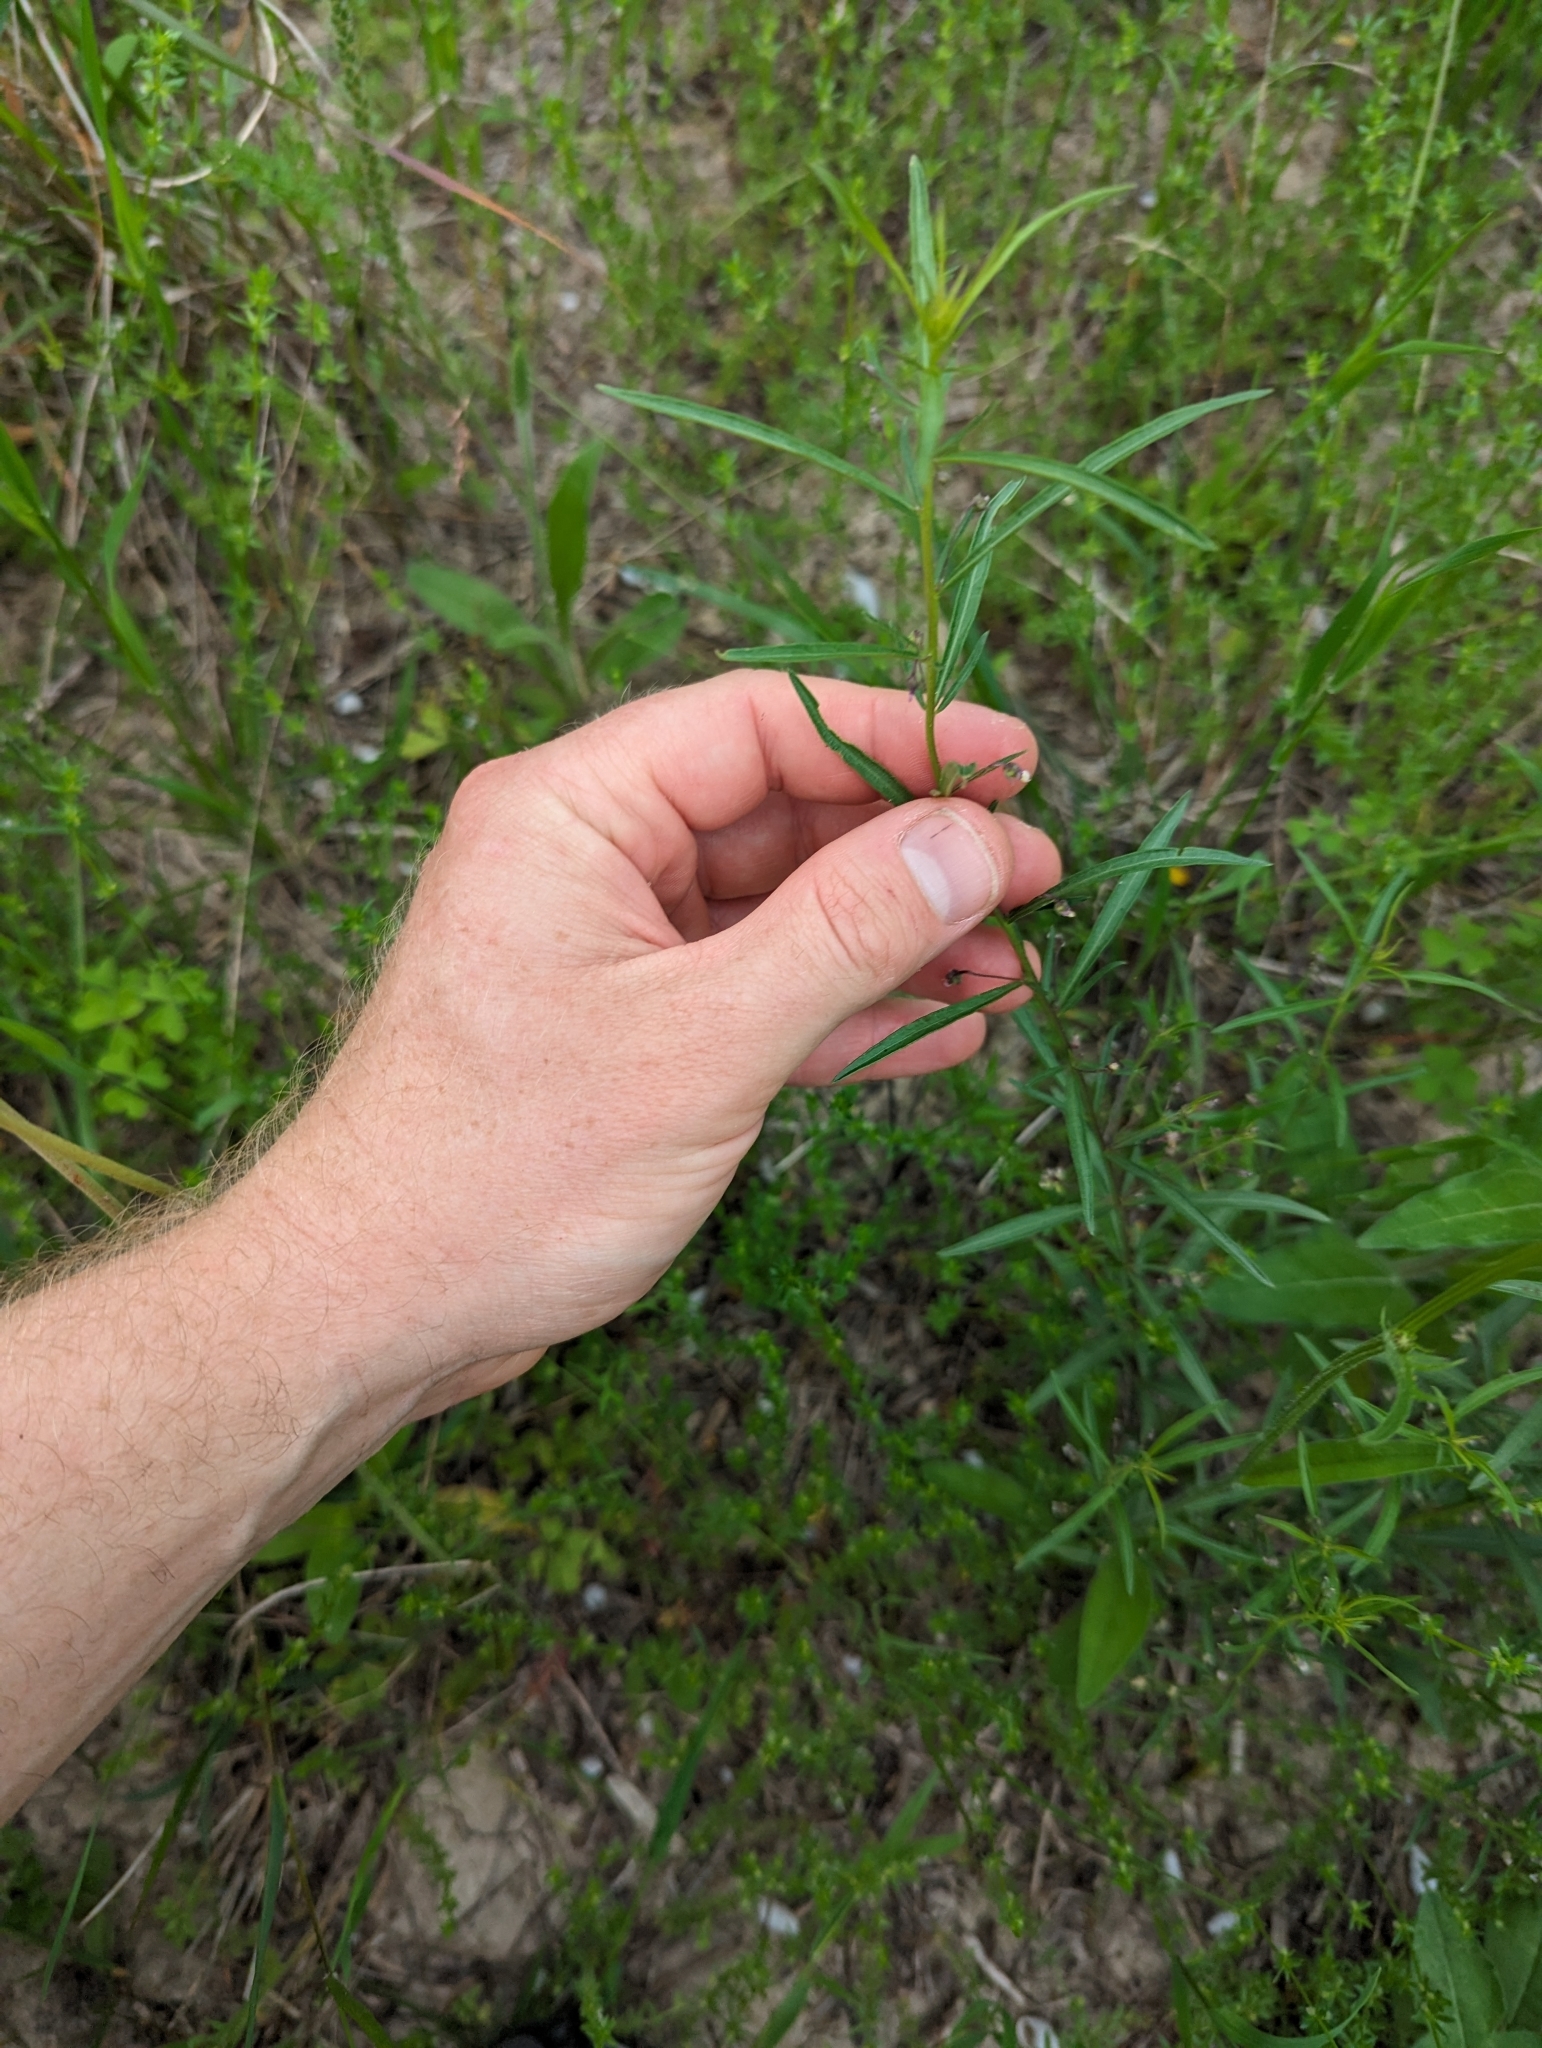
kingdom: Plantae
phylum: Tracheophyta
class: Magnoliopsida
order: Malpighiales
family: Violaceae
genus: Pombalia
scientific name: Pombalia verticillata
